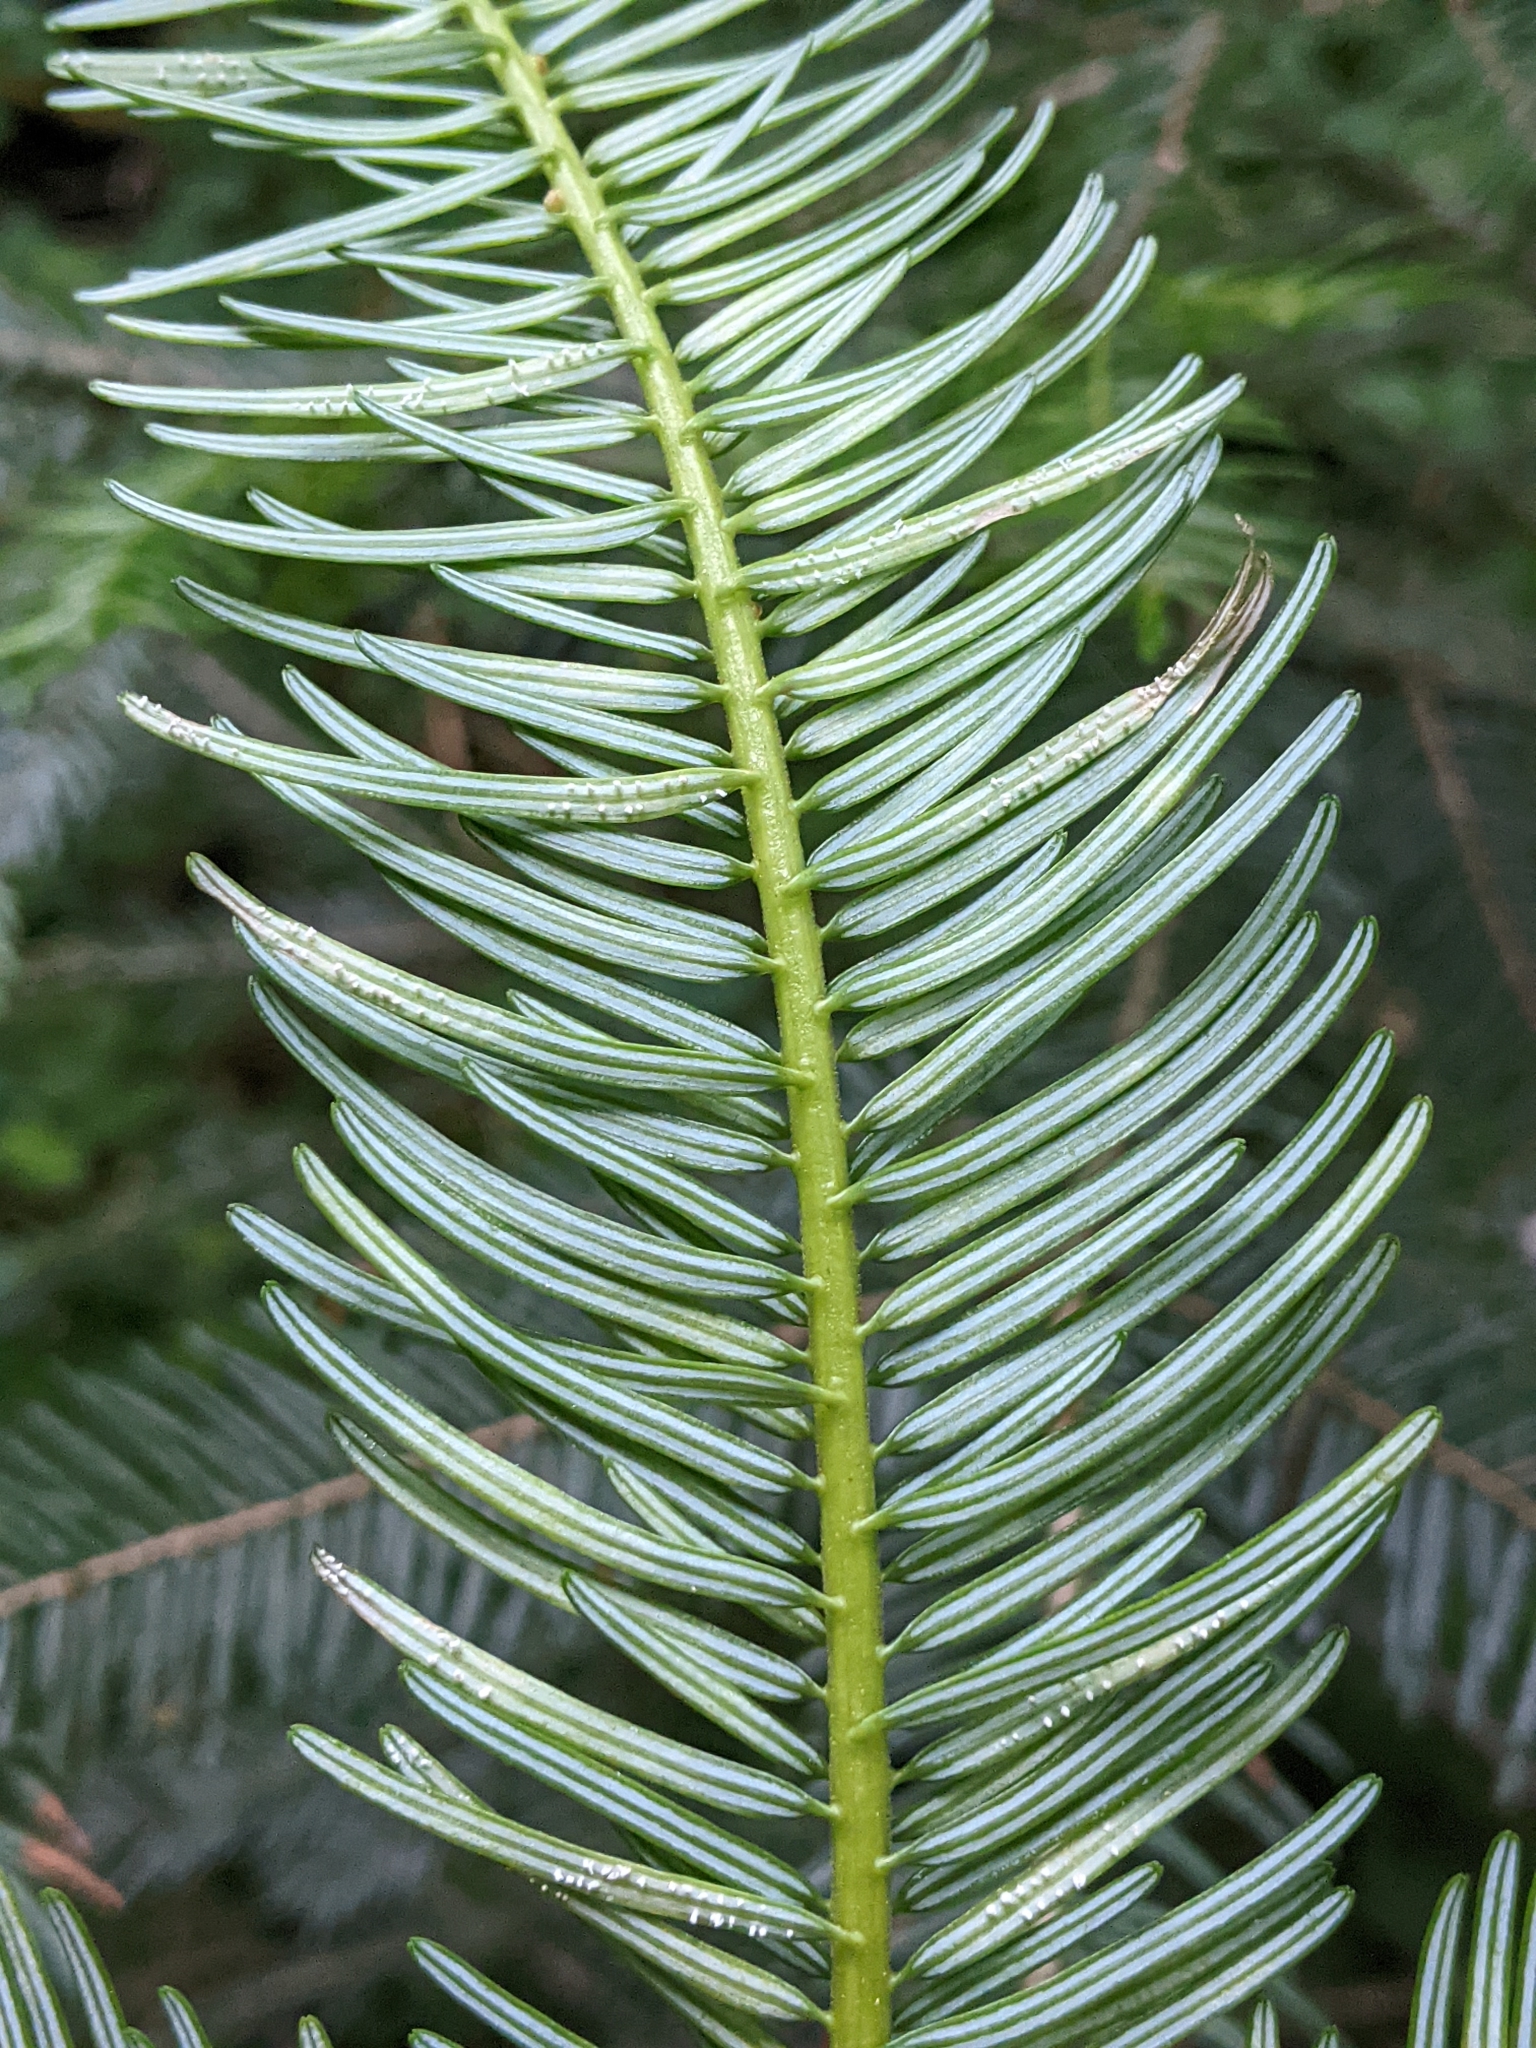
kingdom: Plantae
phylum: Tracheophyta
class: Pinopsida
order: Pinales
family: Pinaceae
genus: Abies
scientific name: Abies grandis
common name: Giant fir
